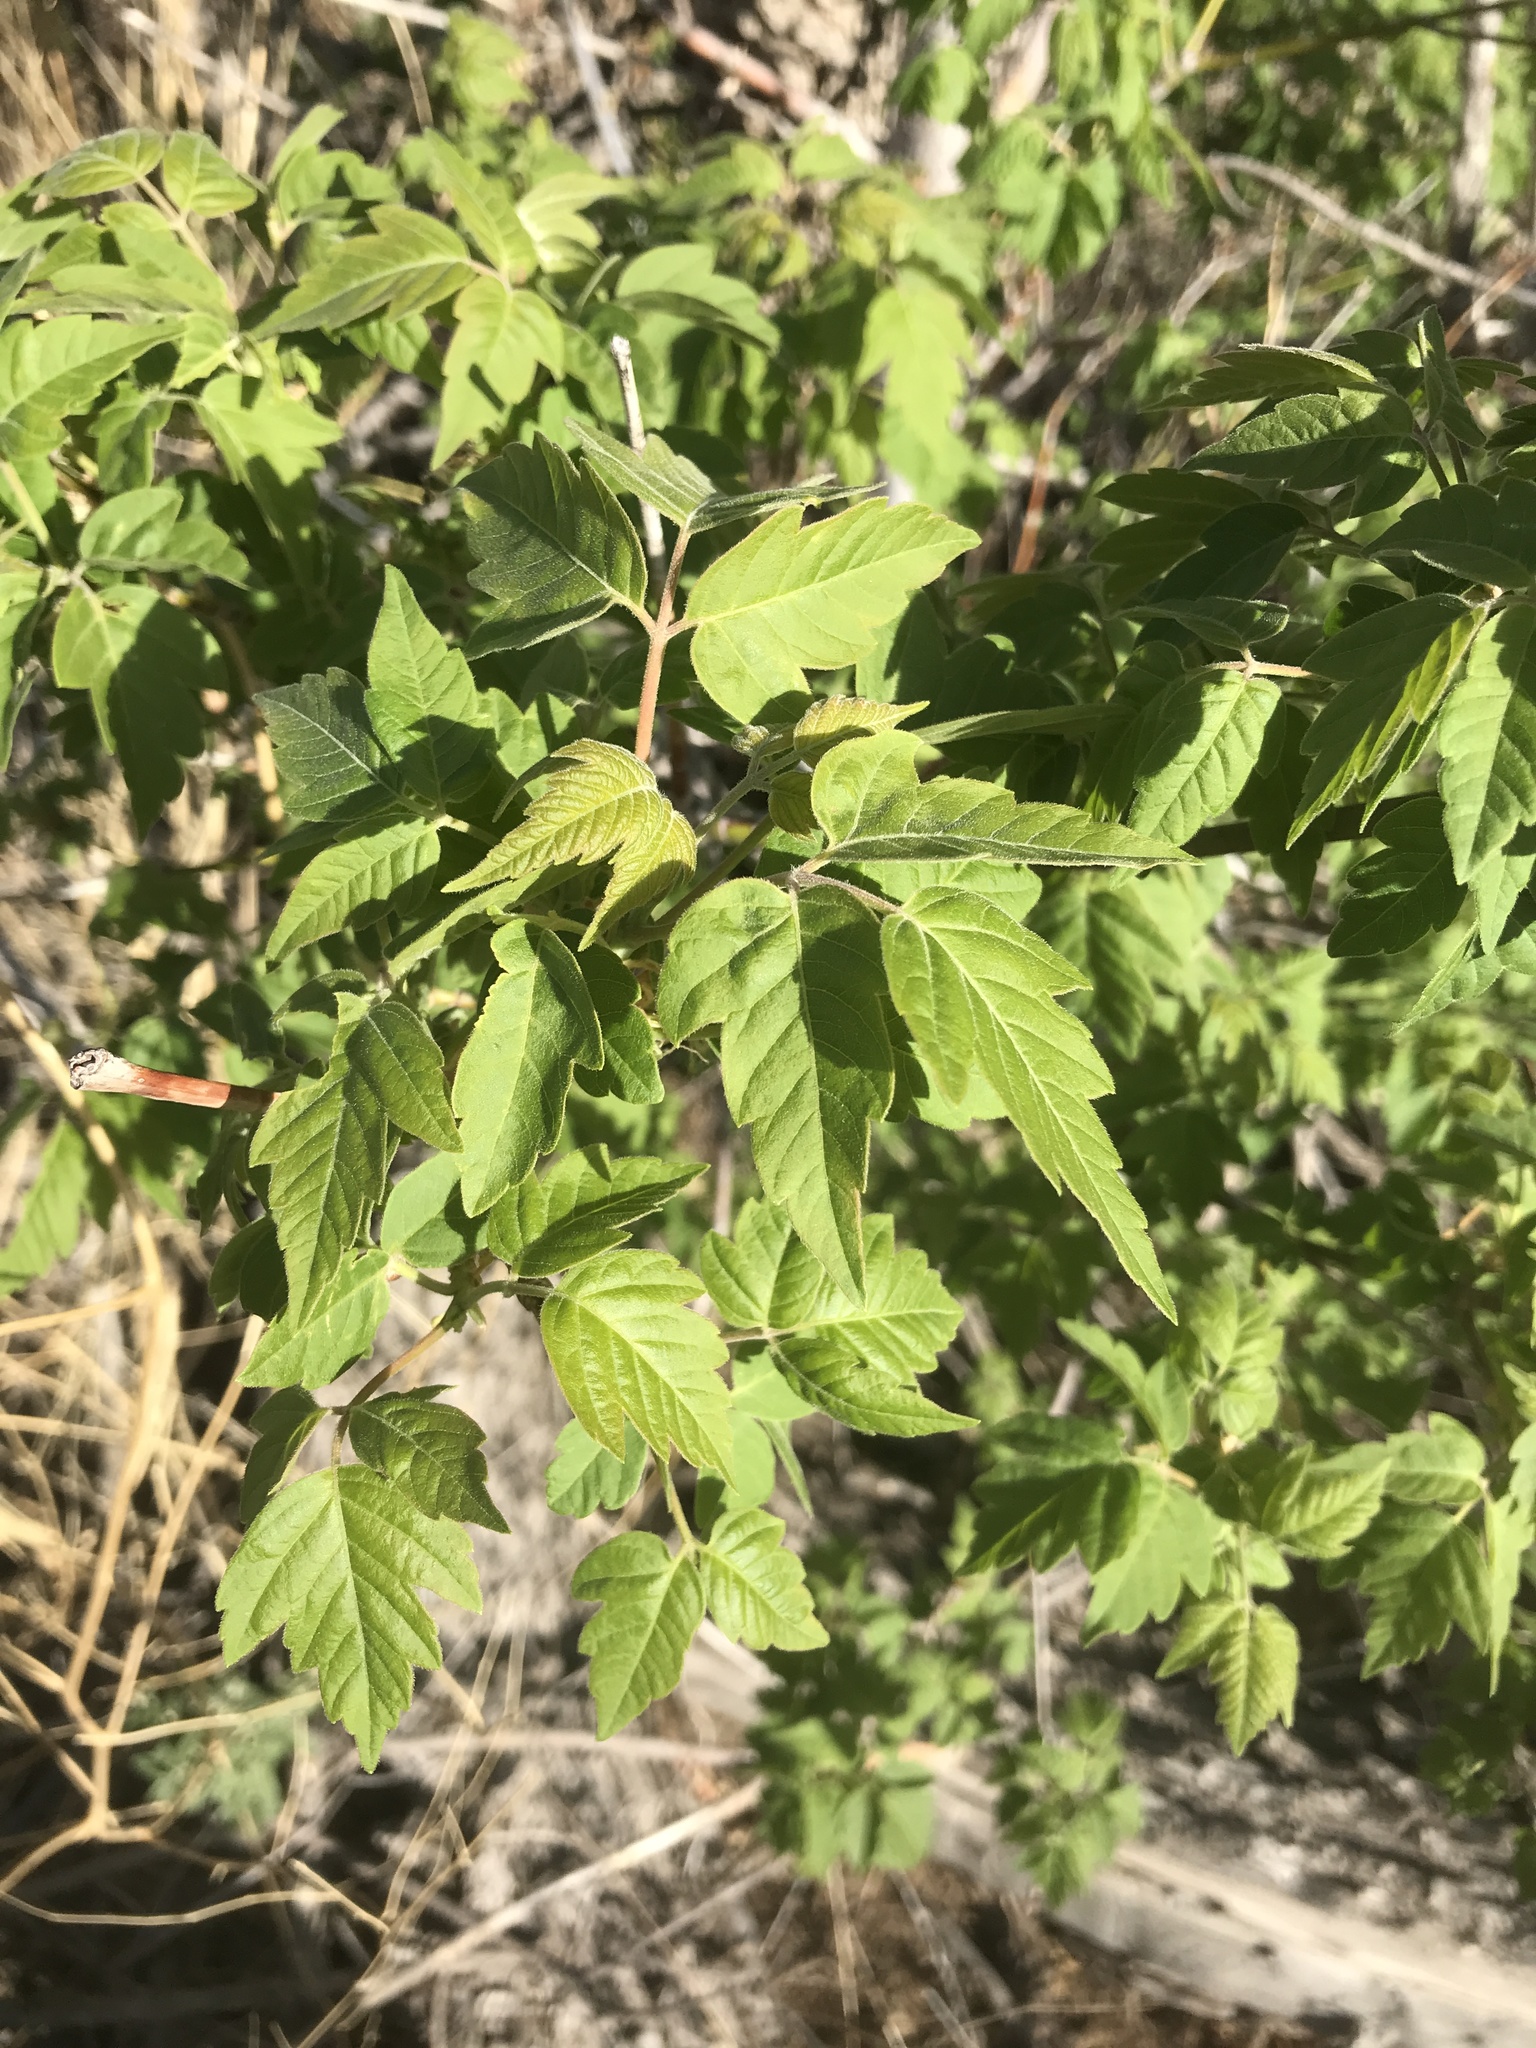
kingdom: Plantae
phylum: Tracheophyta
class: Magnoliopsida
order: Sapindales
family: Sapindaceae
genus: Acer
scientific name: Acer negundo
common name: Ashleaf maple
